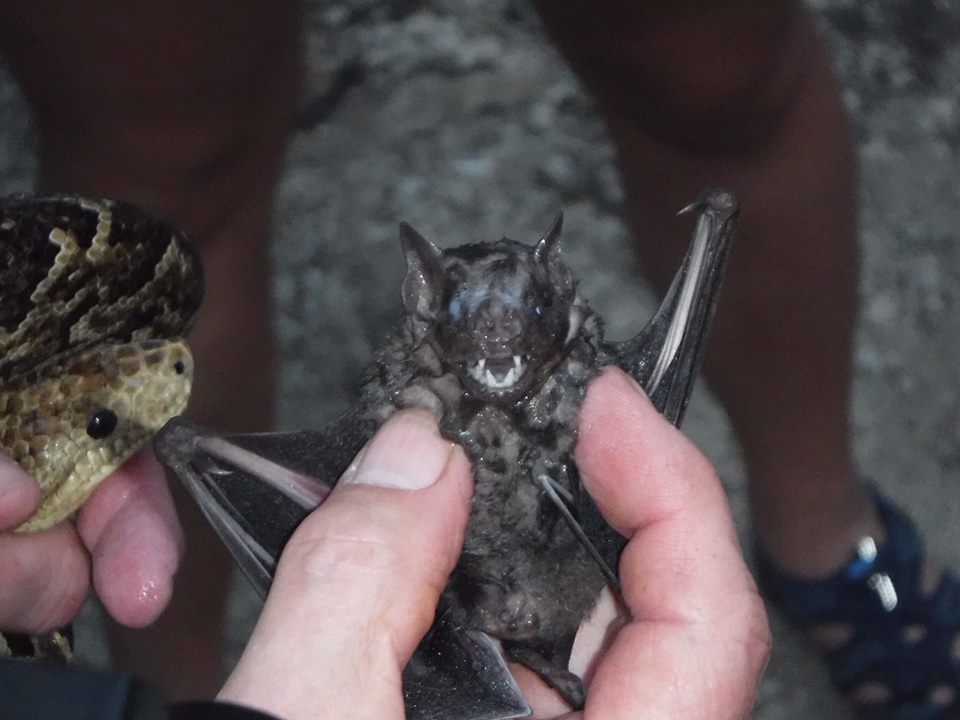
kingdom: Animalia
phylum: Chordata
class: Mammalia
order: Chiroptera
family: Phyllostomidae
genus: Artibeus
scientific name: Artibeus jamaicensis
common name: Jamaican fruit-eating bat
